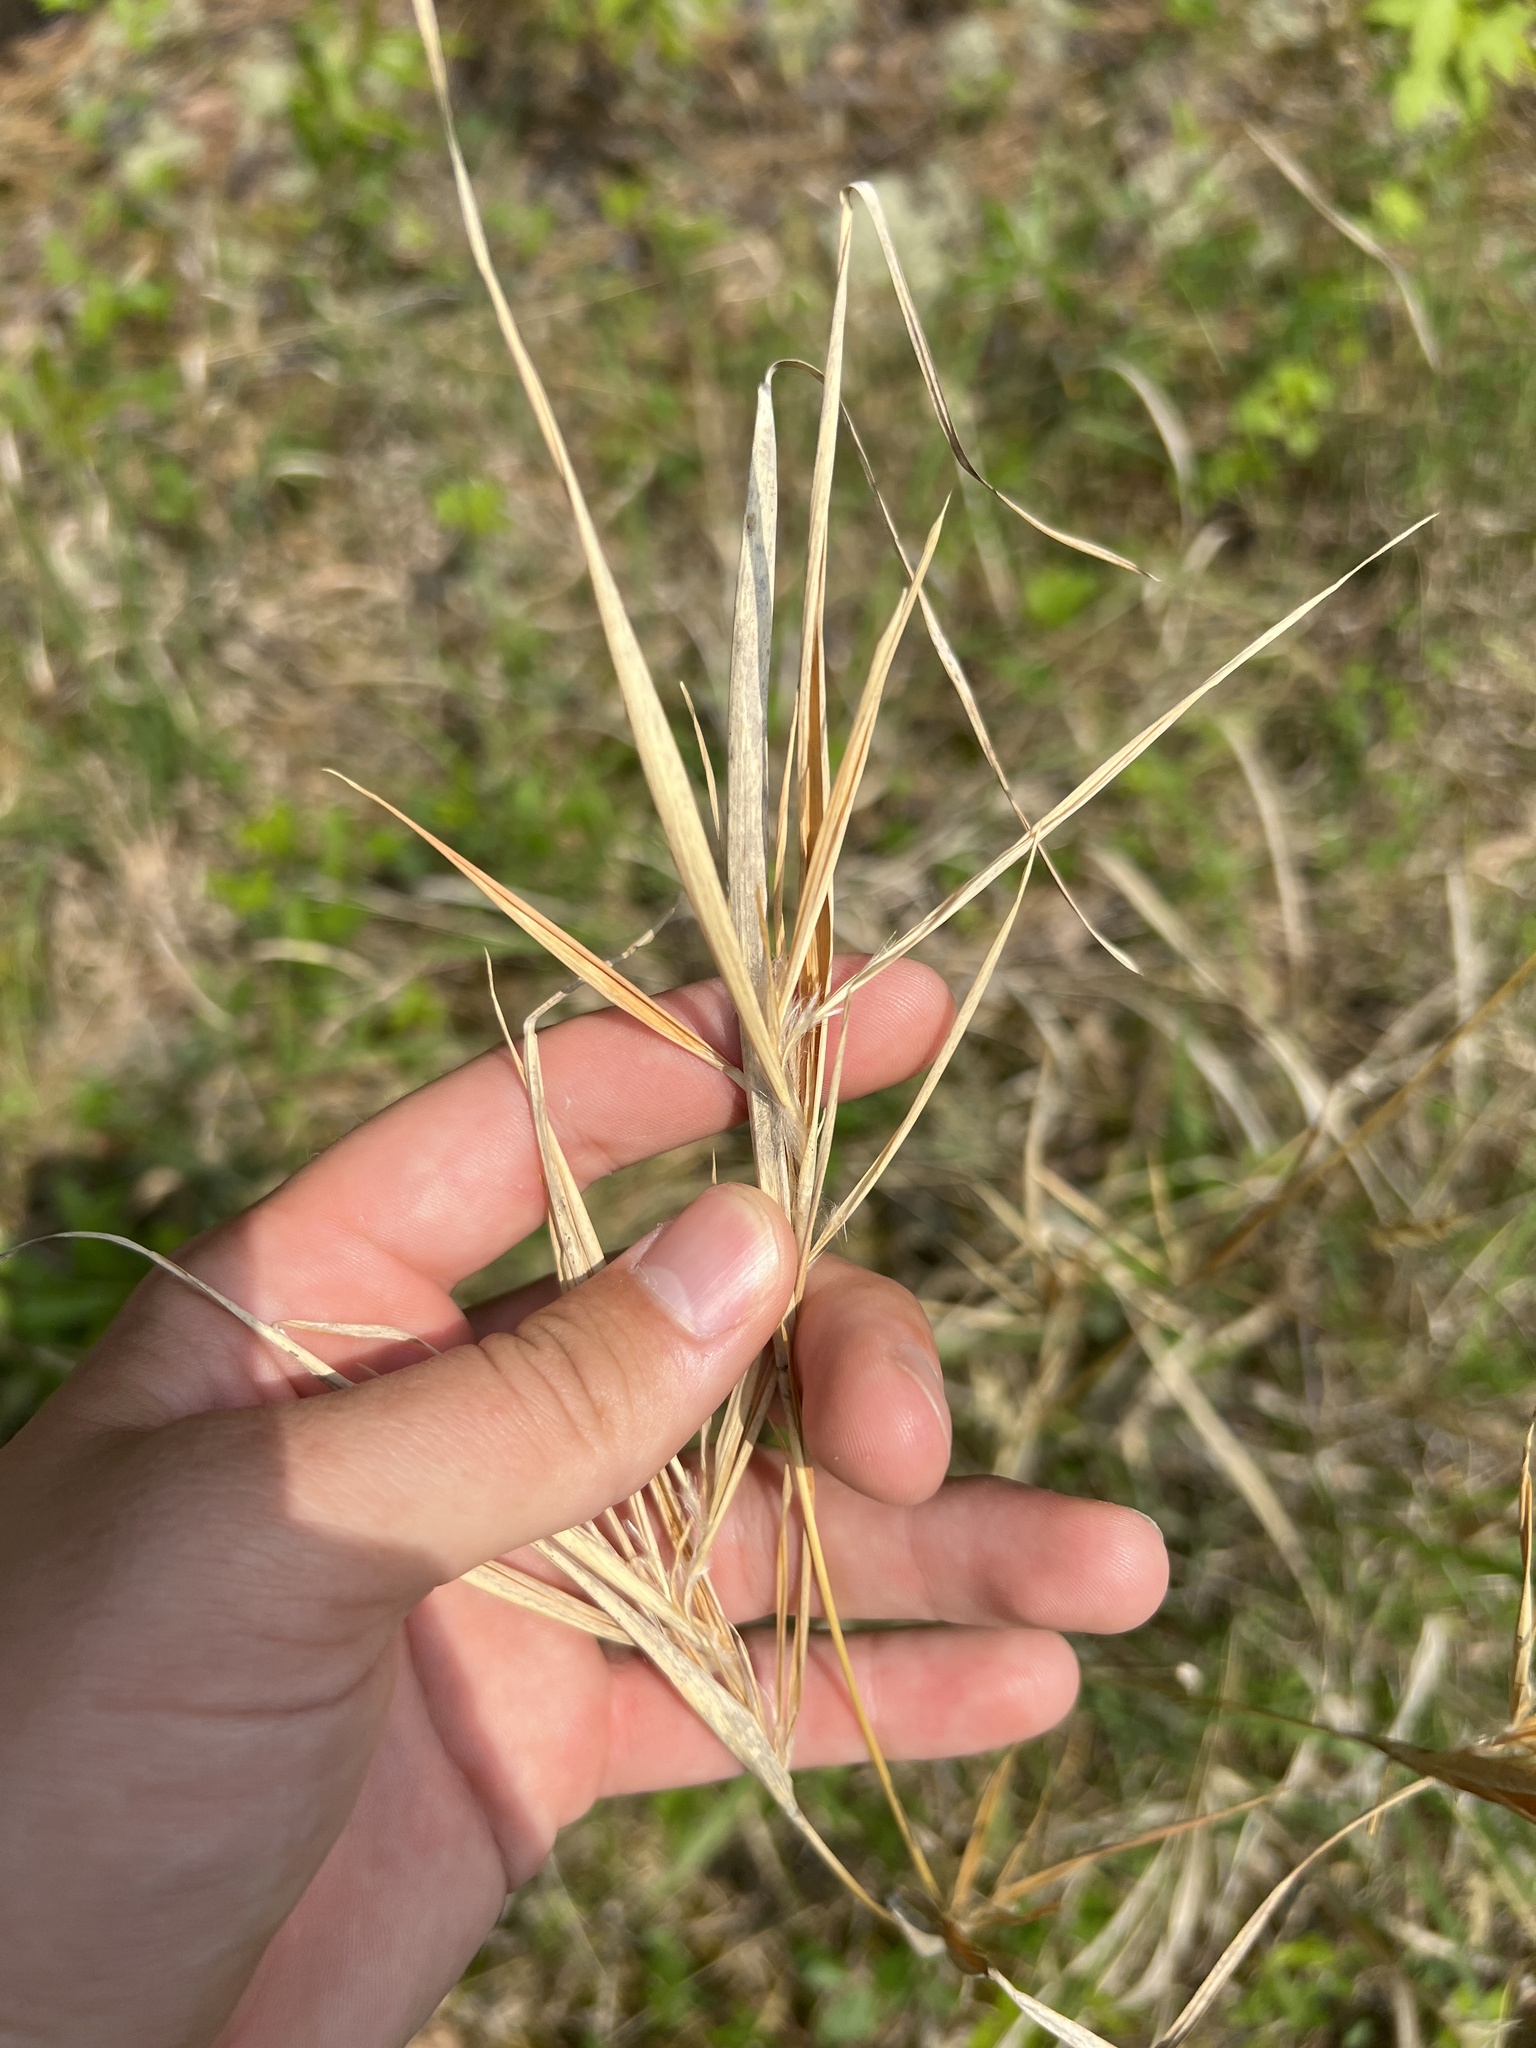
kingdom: Plantae
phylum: Tracheophyta
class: Liliopsida
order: Poales
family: Poaceae
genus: Andropogon
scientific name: Andropogon gyrans
